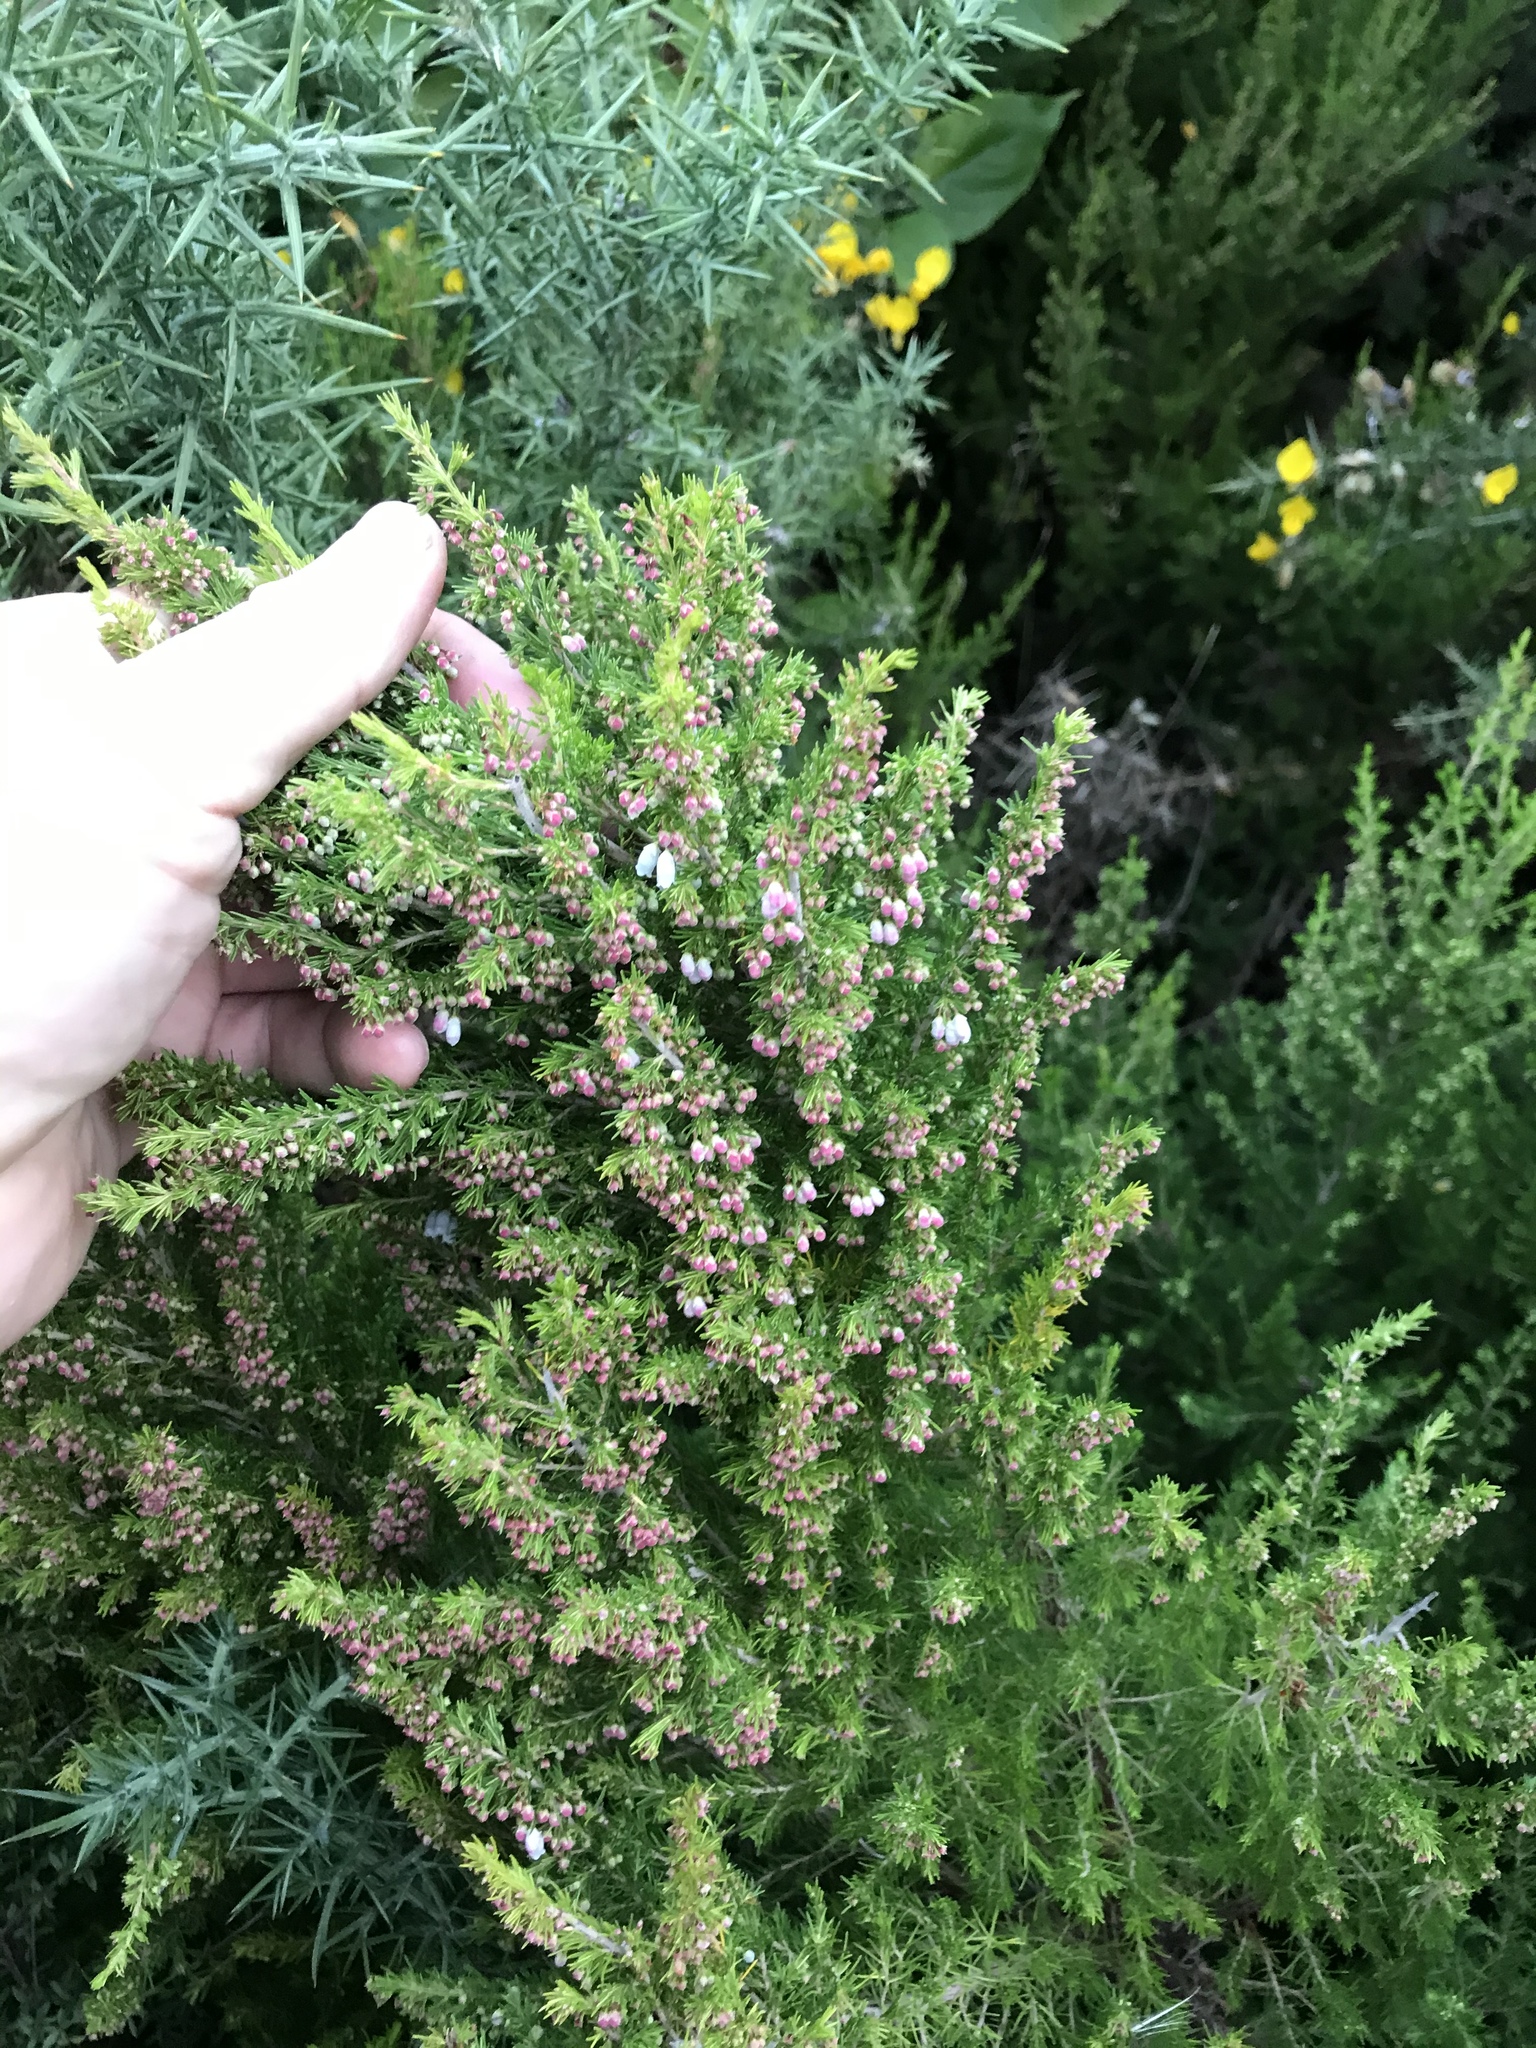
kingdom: Plantae
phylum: Tracheophyta
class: Magnoliopsida
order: Ericales
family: Ericaceae
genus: Erica
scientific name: Erica lusitanica
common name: Spanish heath
